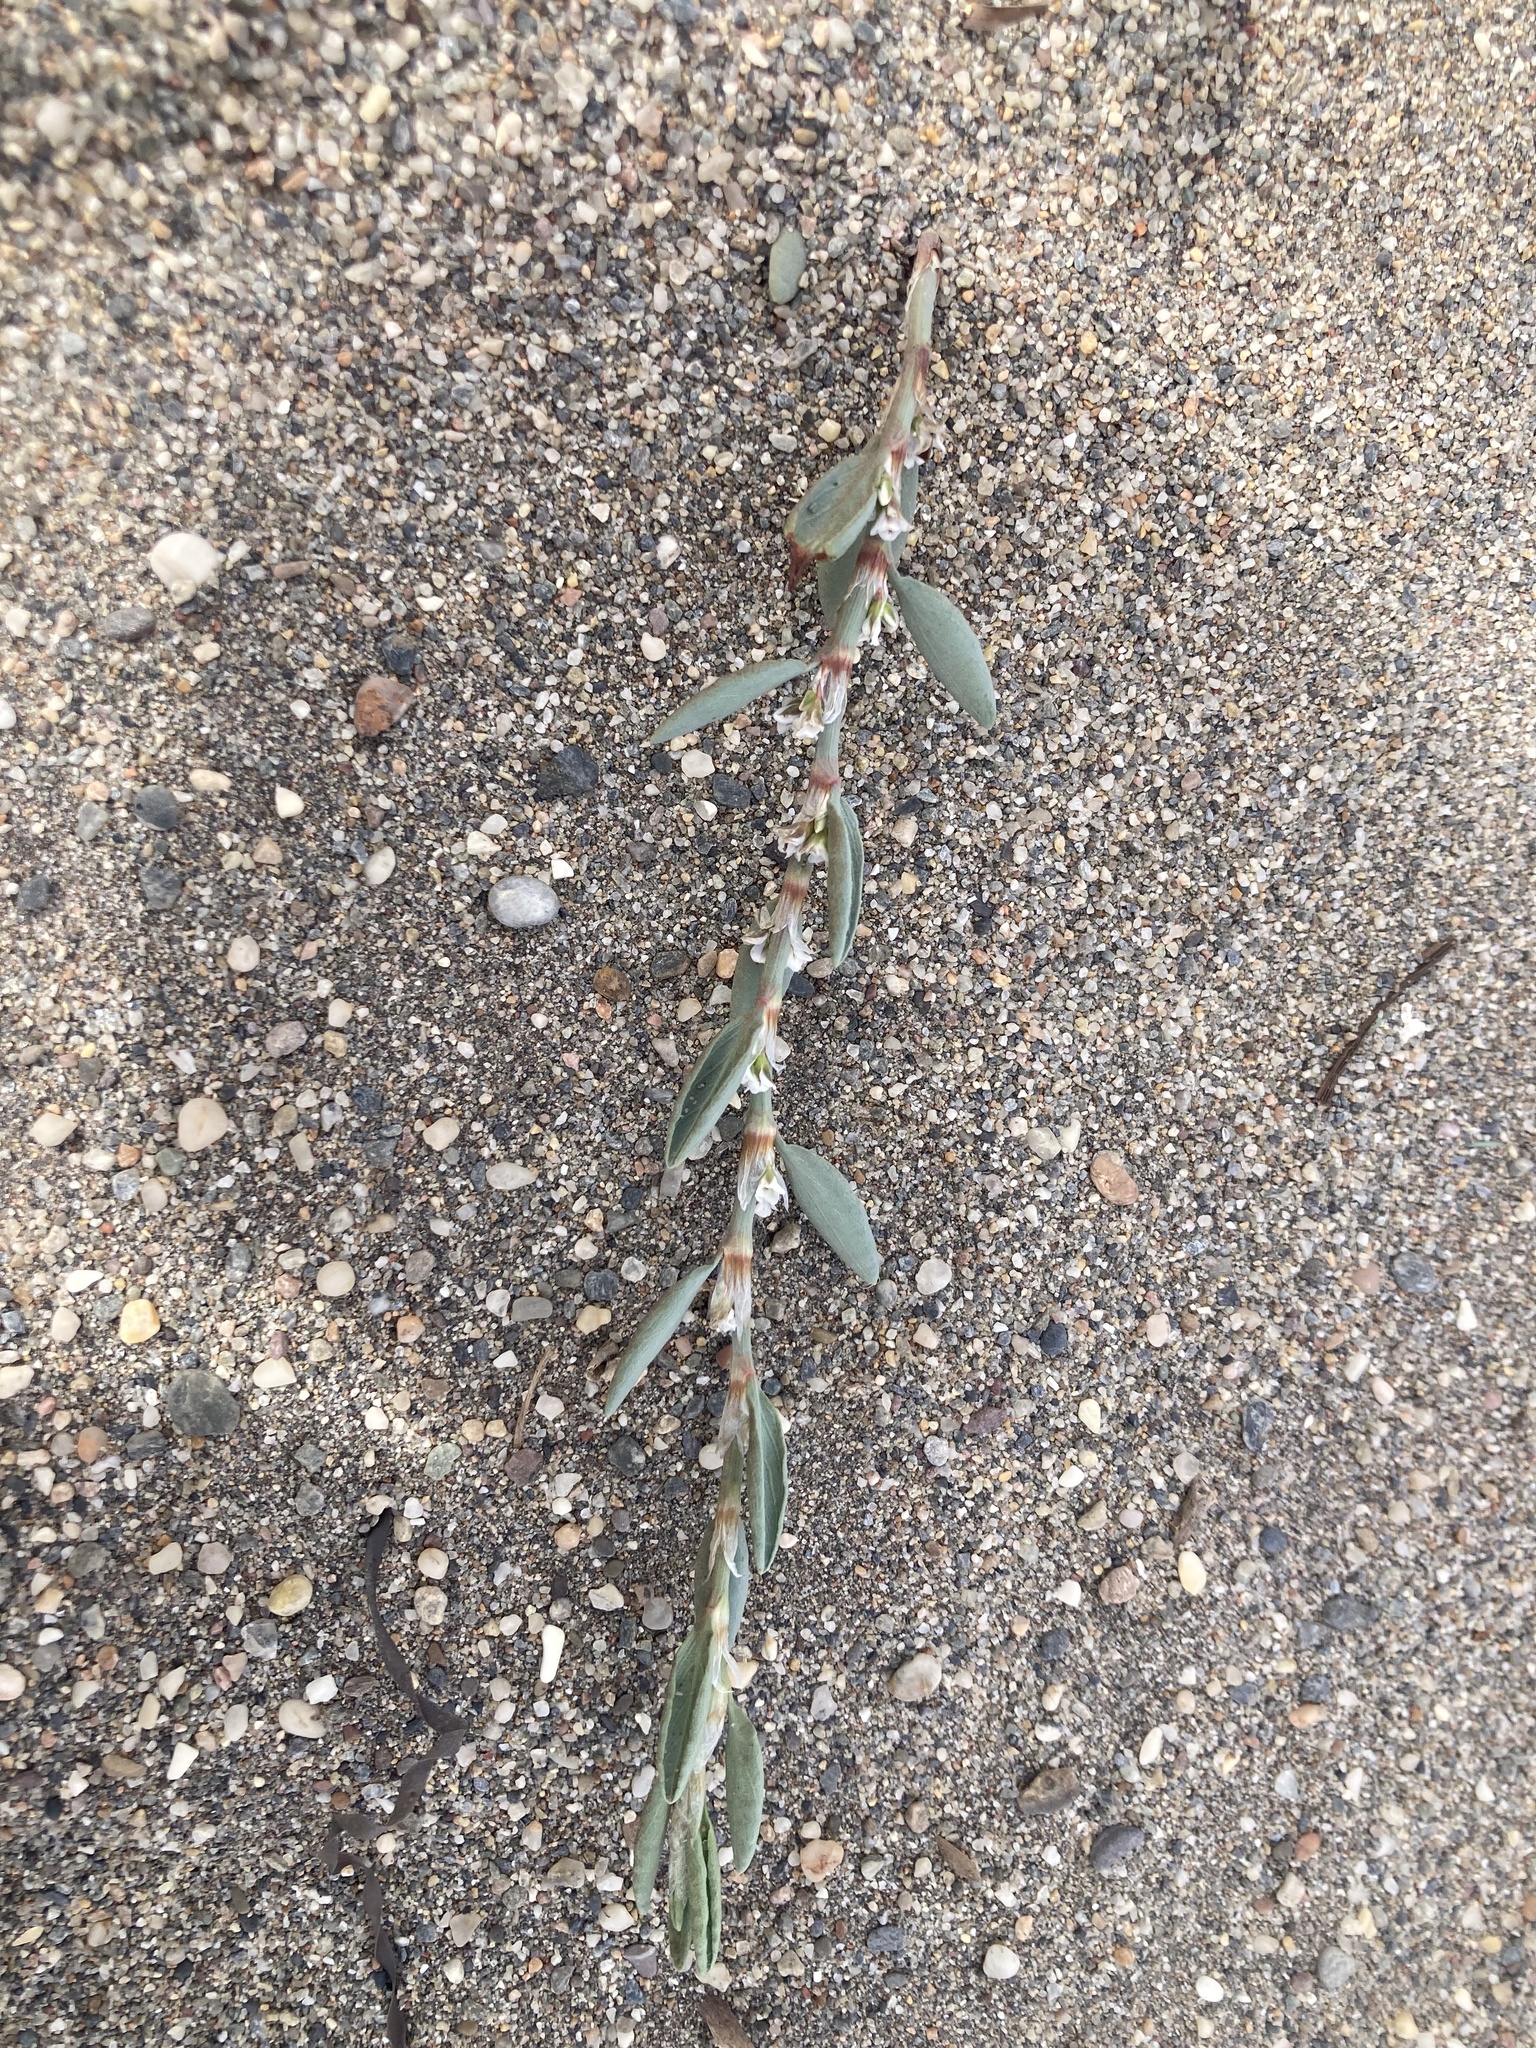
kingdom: Plantae
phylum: Tracheophyta
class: Magnoliopsida
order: Caryophyllales
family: Polygonaceae
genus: Polygonum
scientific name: Polygonum maritimum
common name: Sea knotgrass
